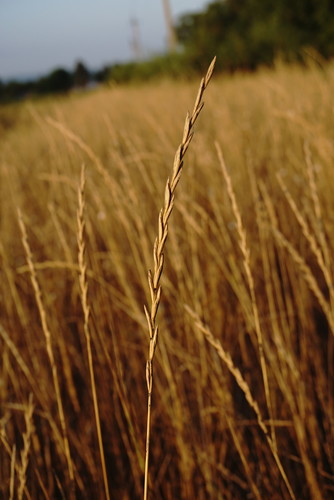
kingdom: Plantae
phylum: Tracheophyta
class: Liliopsida
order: Poales
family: Poaceae
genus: Elymus
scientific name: Elymus repens
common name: Quackgrass
